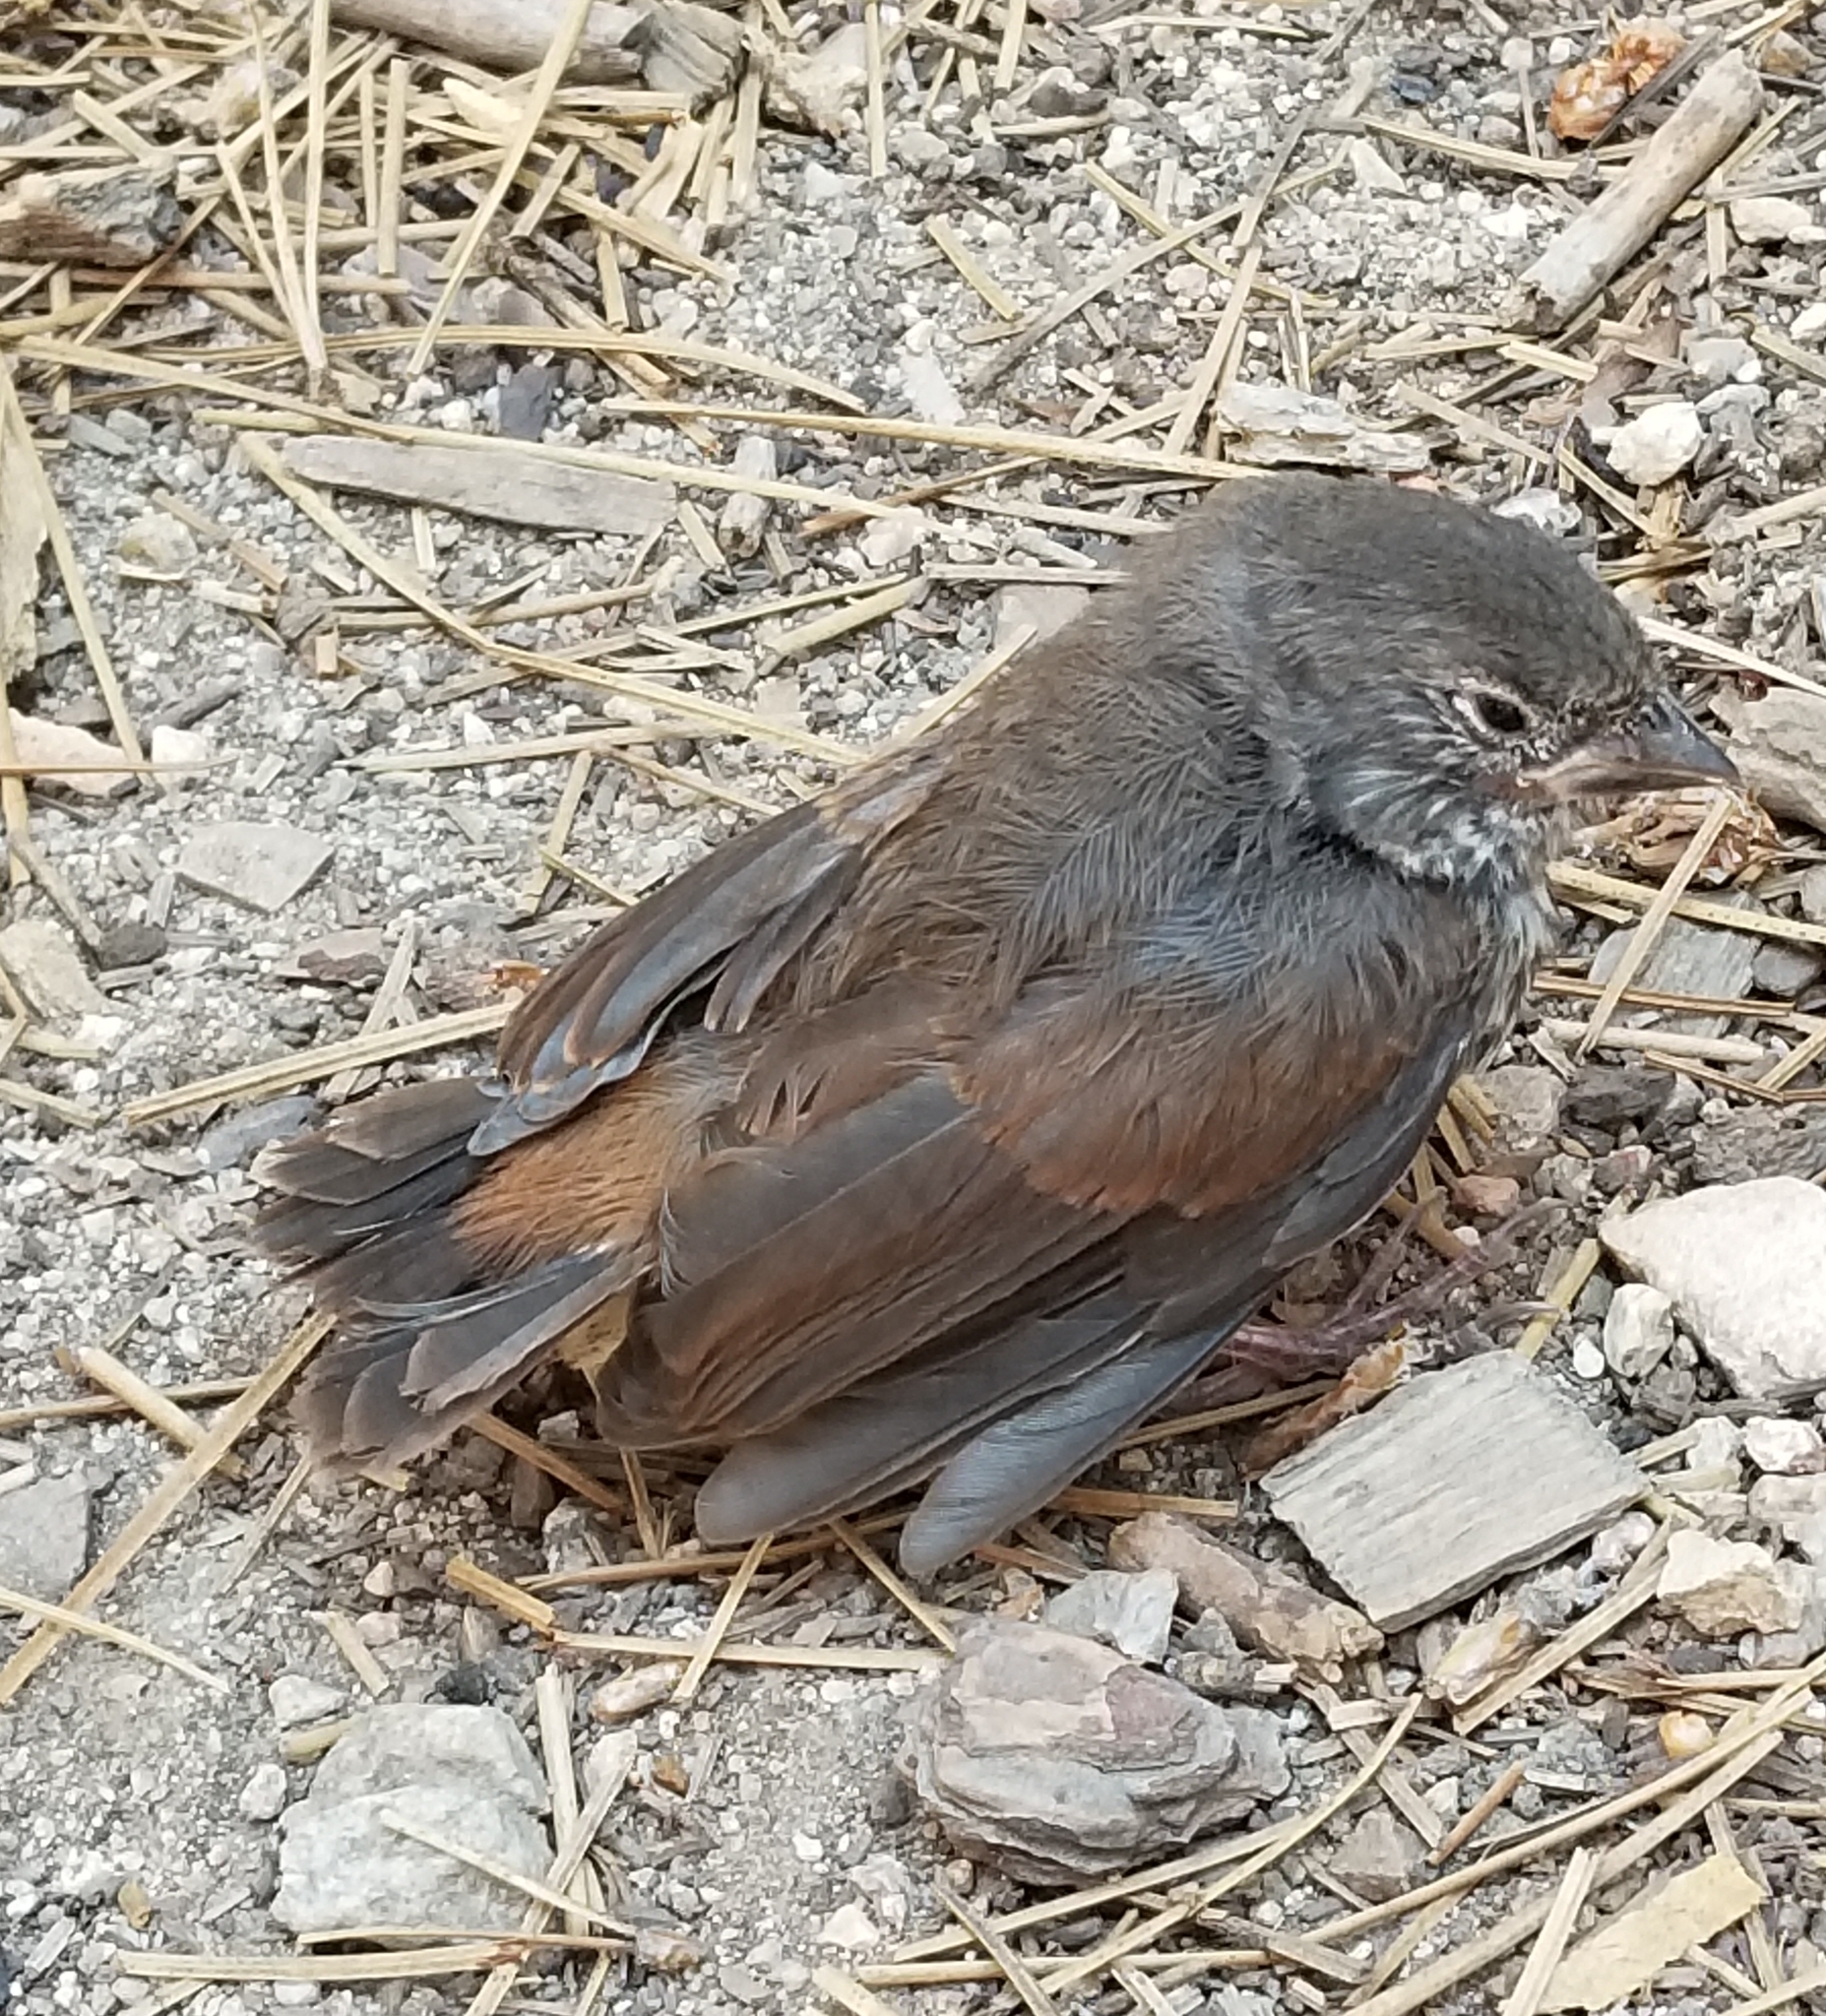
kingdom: Animalia
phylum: Chordata
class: Aves
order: Passeriformes
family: Passerellidae
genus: Passerella
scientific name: Passerella iliaca
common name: Fox sparrow
